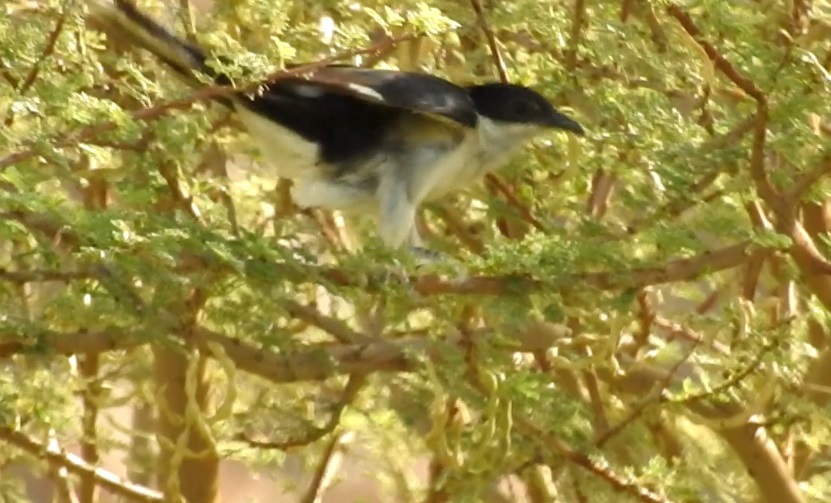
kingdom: Animalia
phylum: Chordata
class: Aves
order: Cuculiformes
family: Cuculidae
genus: Clamator
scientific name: Clamator jacobinus
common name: Jacobin cuckoo
